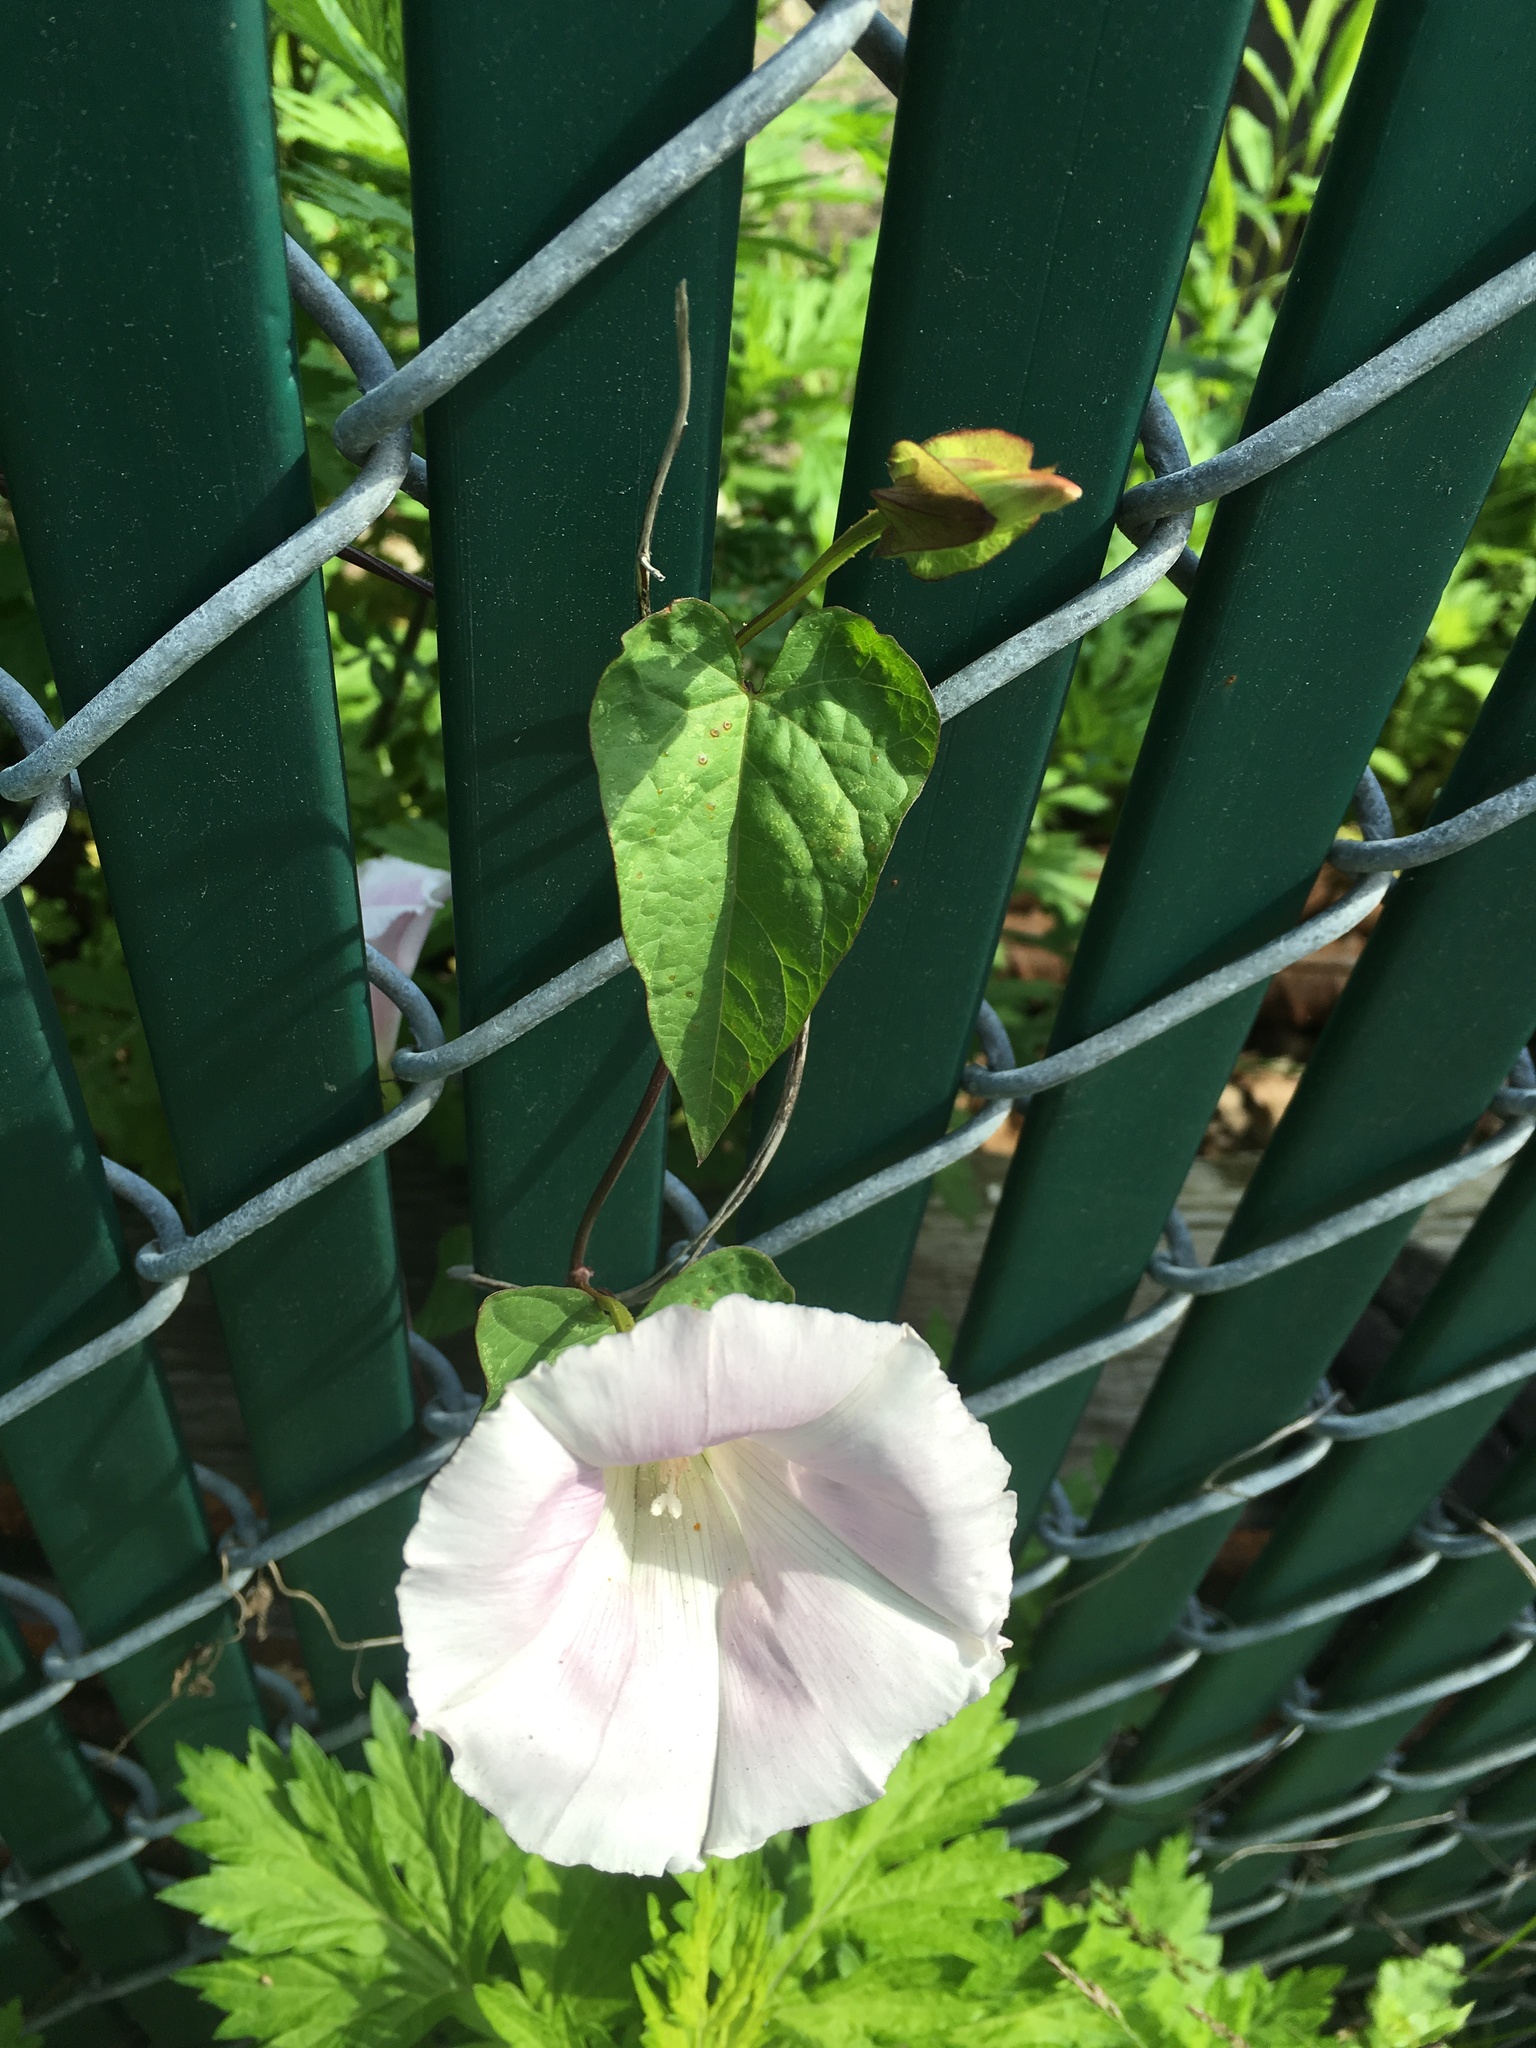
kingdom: Plantae
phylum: Tracheophyta
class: Magnoliopsida
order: Solanales
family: Convolvulaceae
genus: Calystegia
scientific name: Calystegia sepium
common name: Hedge bindweed
